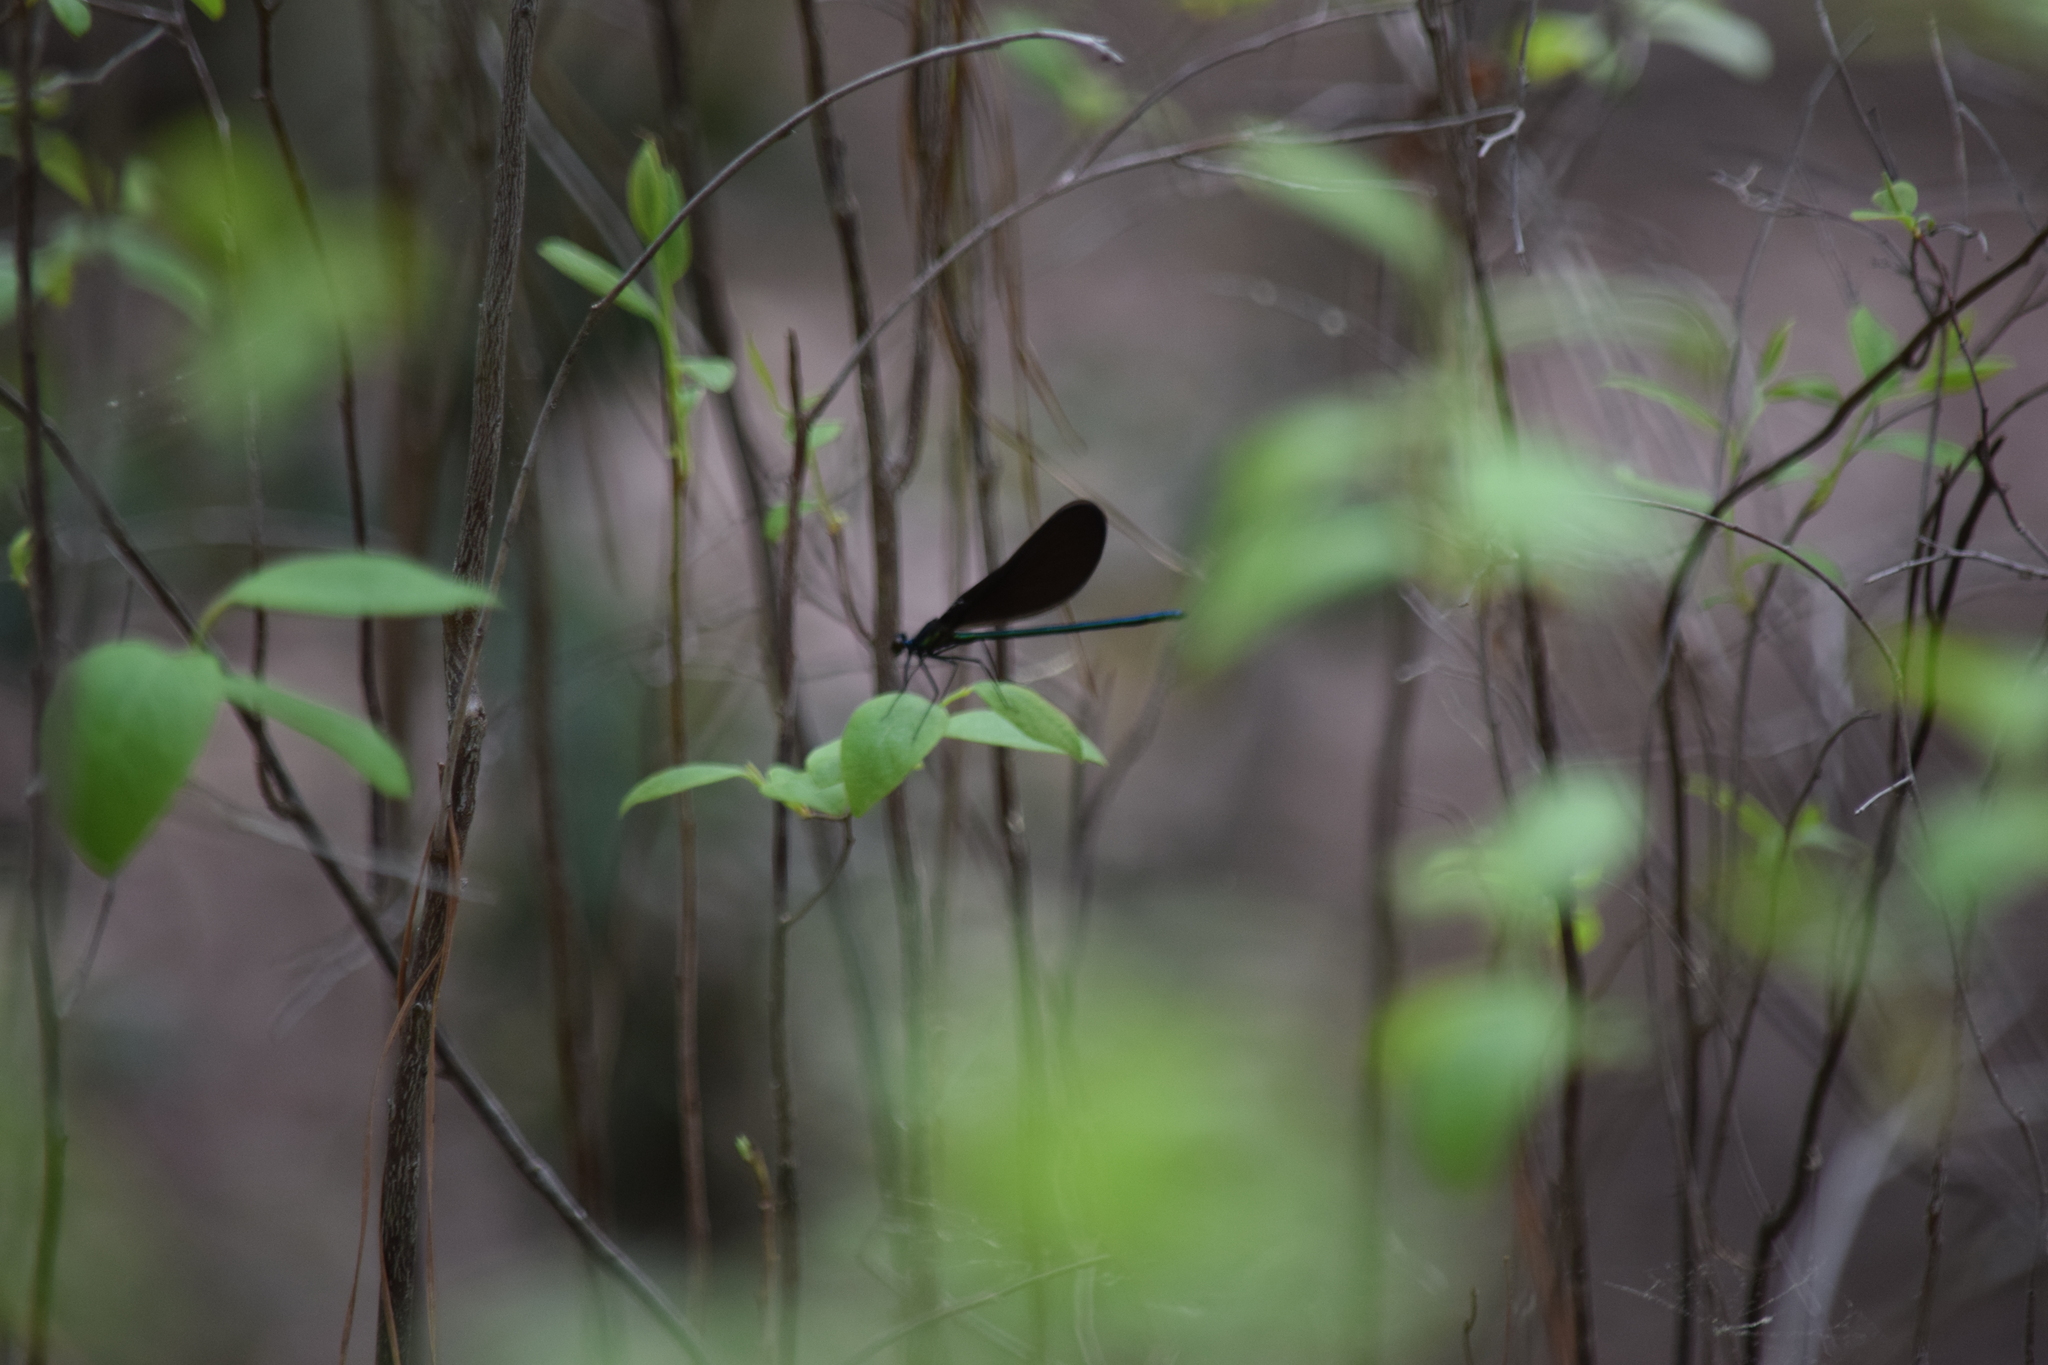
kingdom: Animalia
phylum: Arthropoda
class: Insecta
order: Odonata
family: Calopterygidae
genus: Calopteryx
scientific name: Calopteryx maculata
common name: Ebony jewelwing
